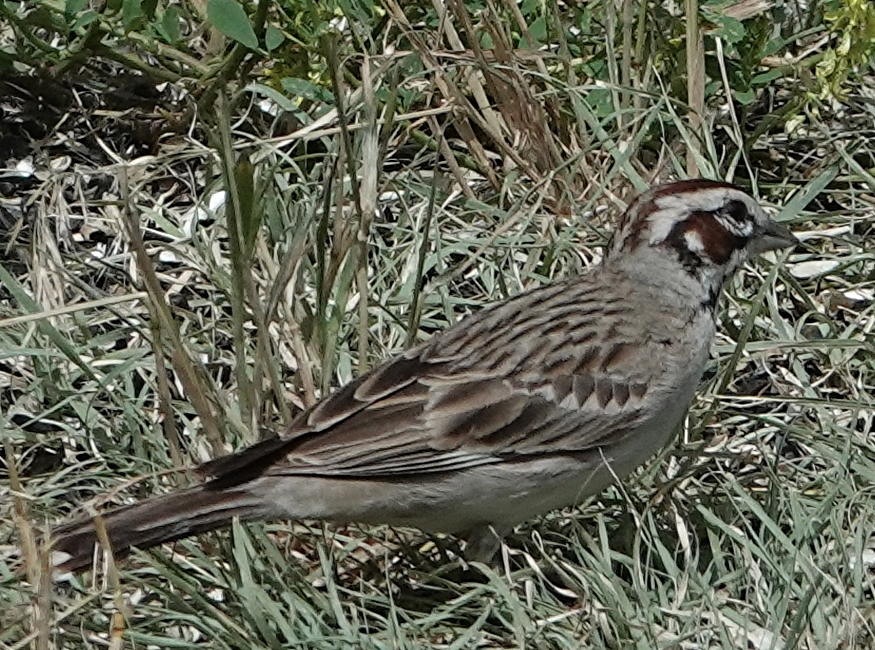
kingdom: Animalia
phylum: Chordata
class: Aves
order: Passeriformes
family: Passerellidae
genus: Chondestes
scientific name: Chondestes grammacus
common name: Lark sparrow
